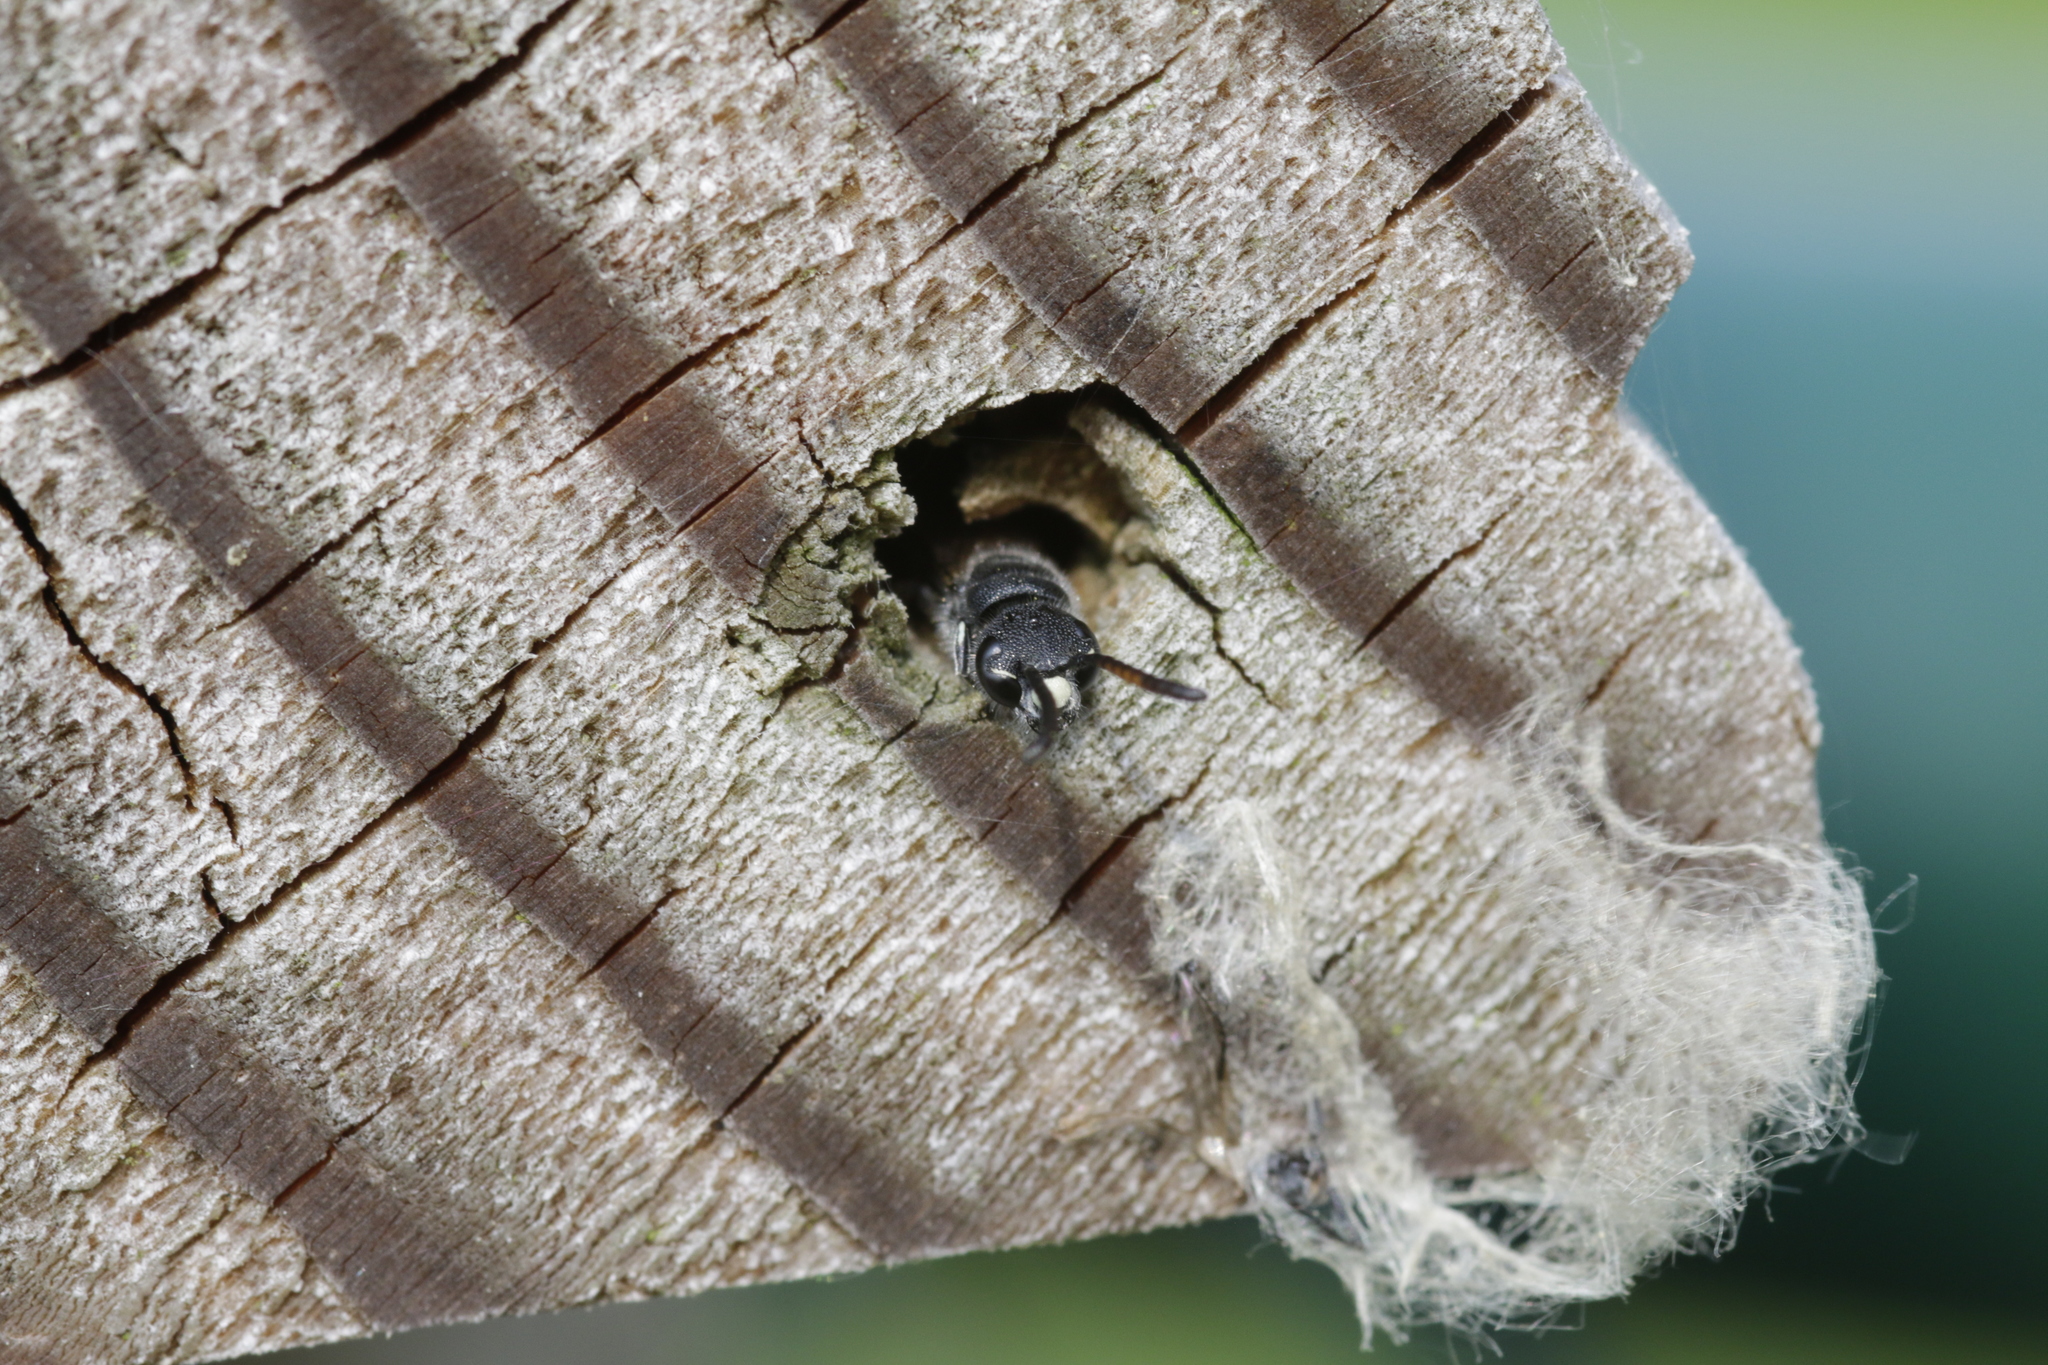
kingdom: Animalia
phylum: Arthropoda
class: Insecta
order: Hymenoptera
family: Sapygidae
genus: Sapyga
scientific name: Sapyga quinquepunctata
